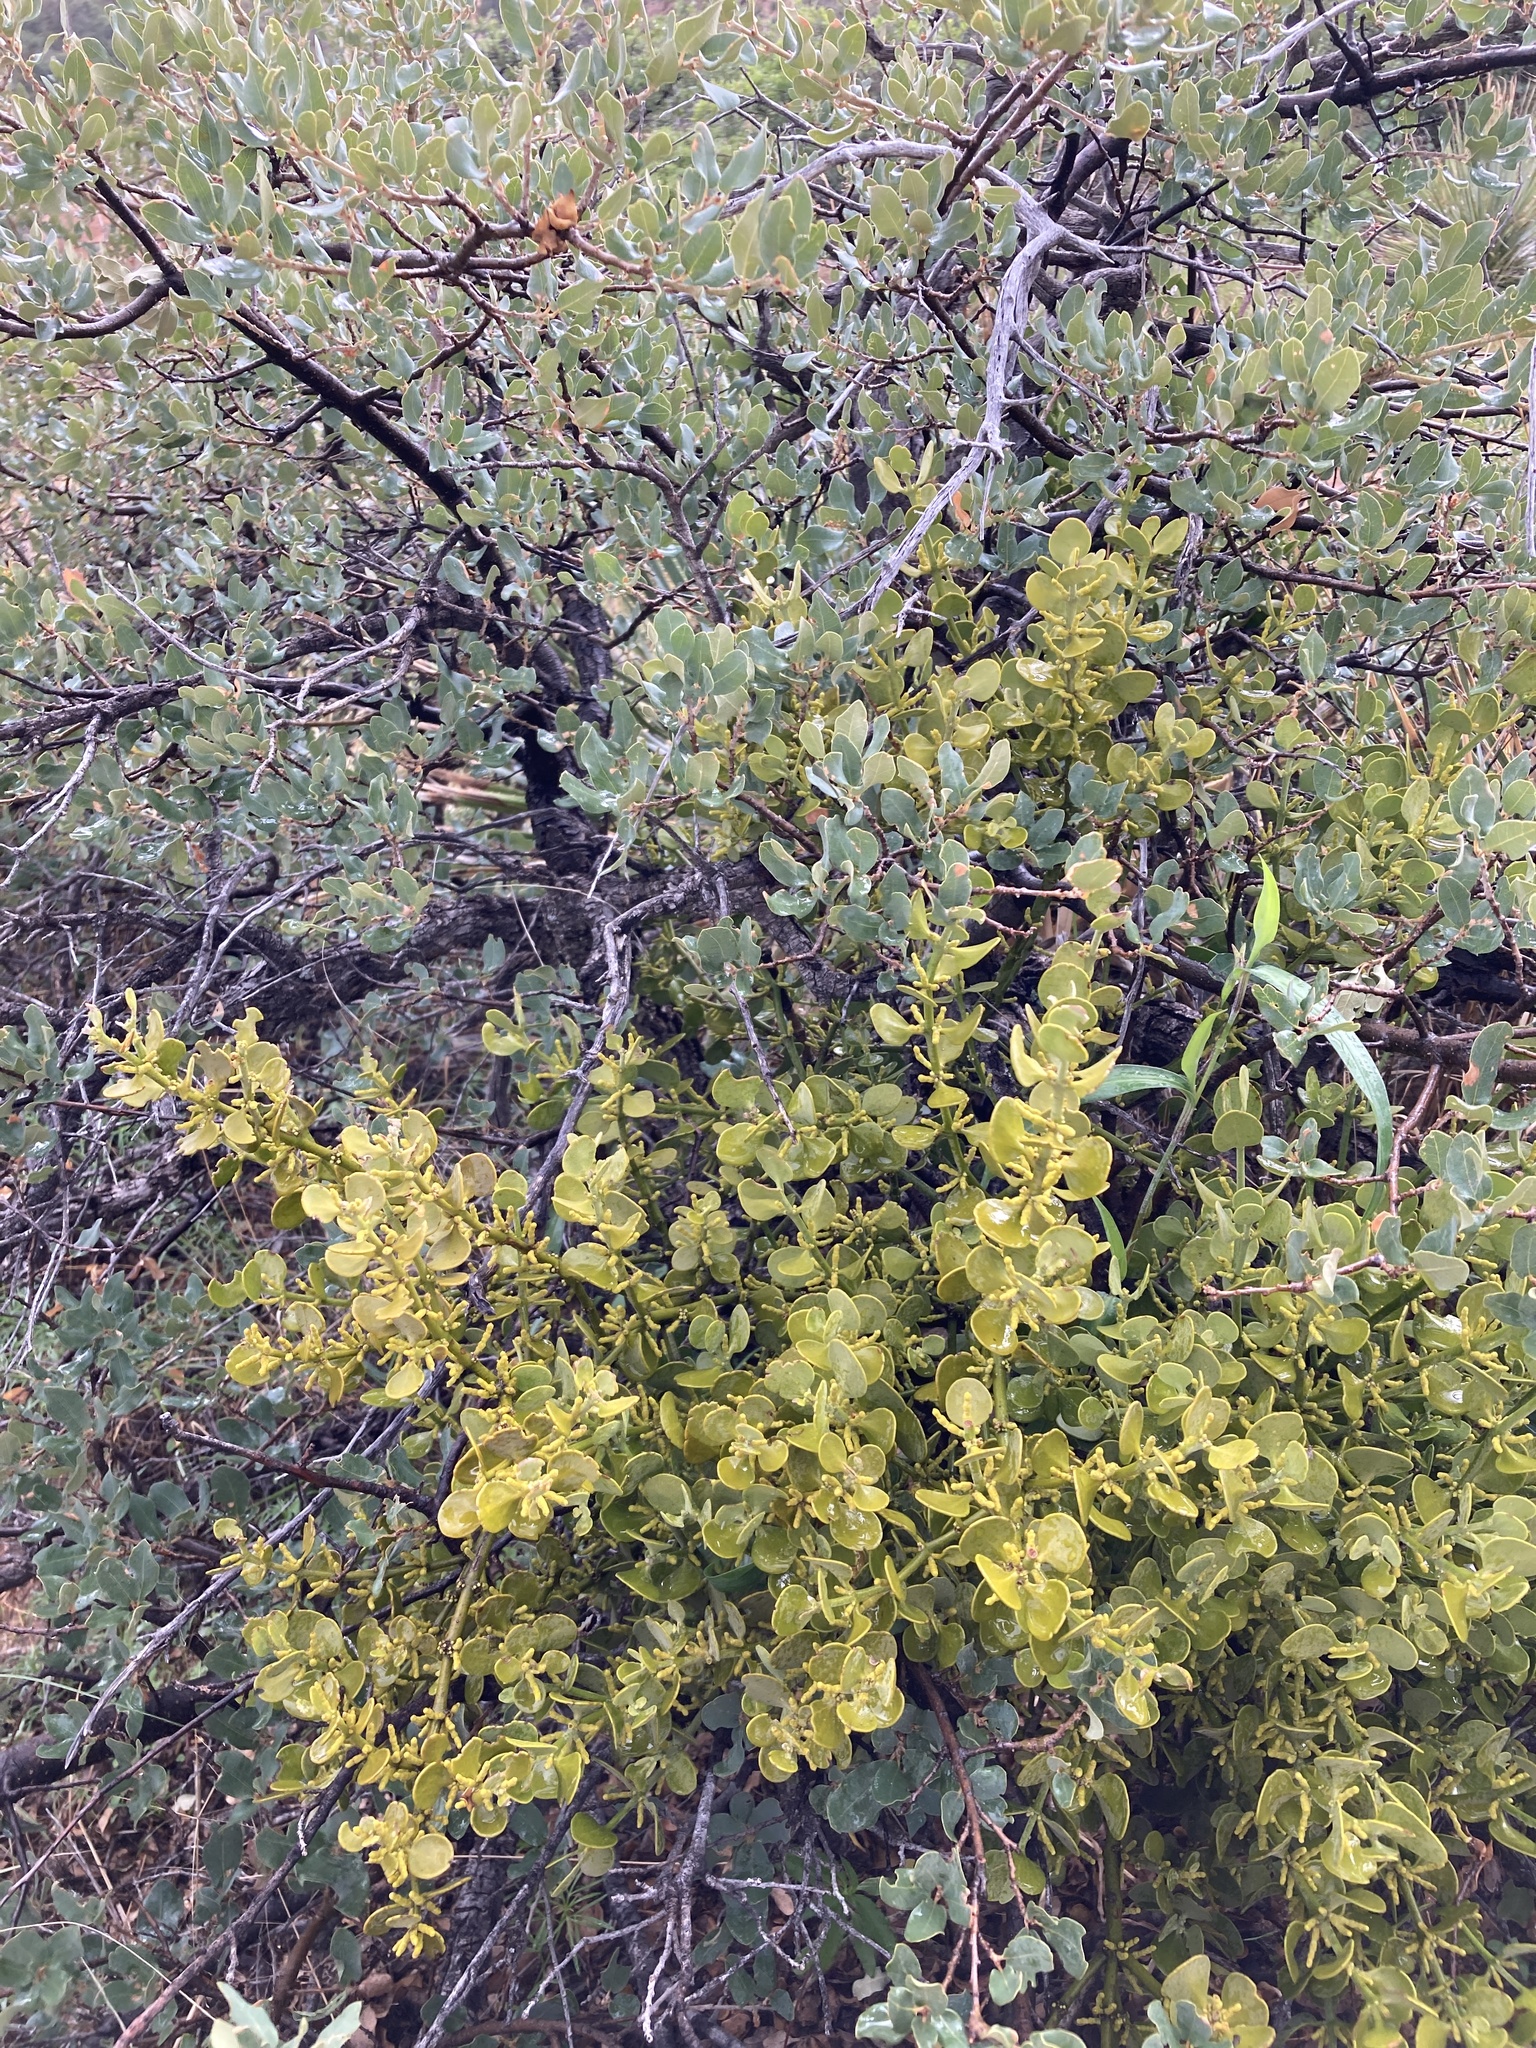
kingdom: Plantae
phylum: Tracheophyta
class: Magnoliopsida
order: Santalales
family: Viscaceae
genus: Phoradendron
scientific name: Phoradendron coryae
